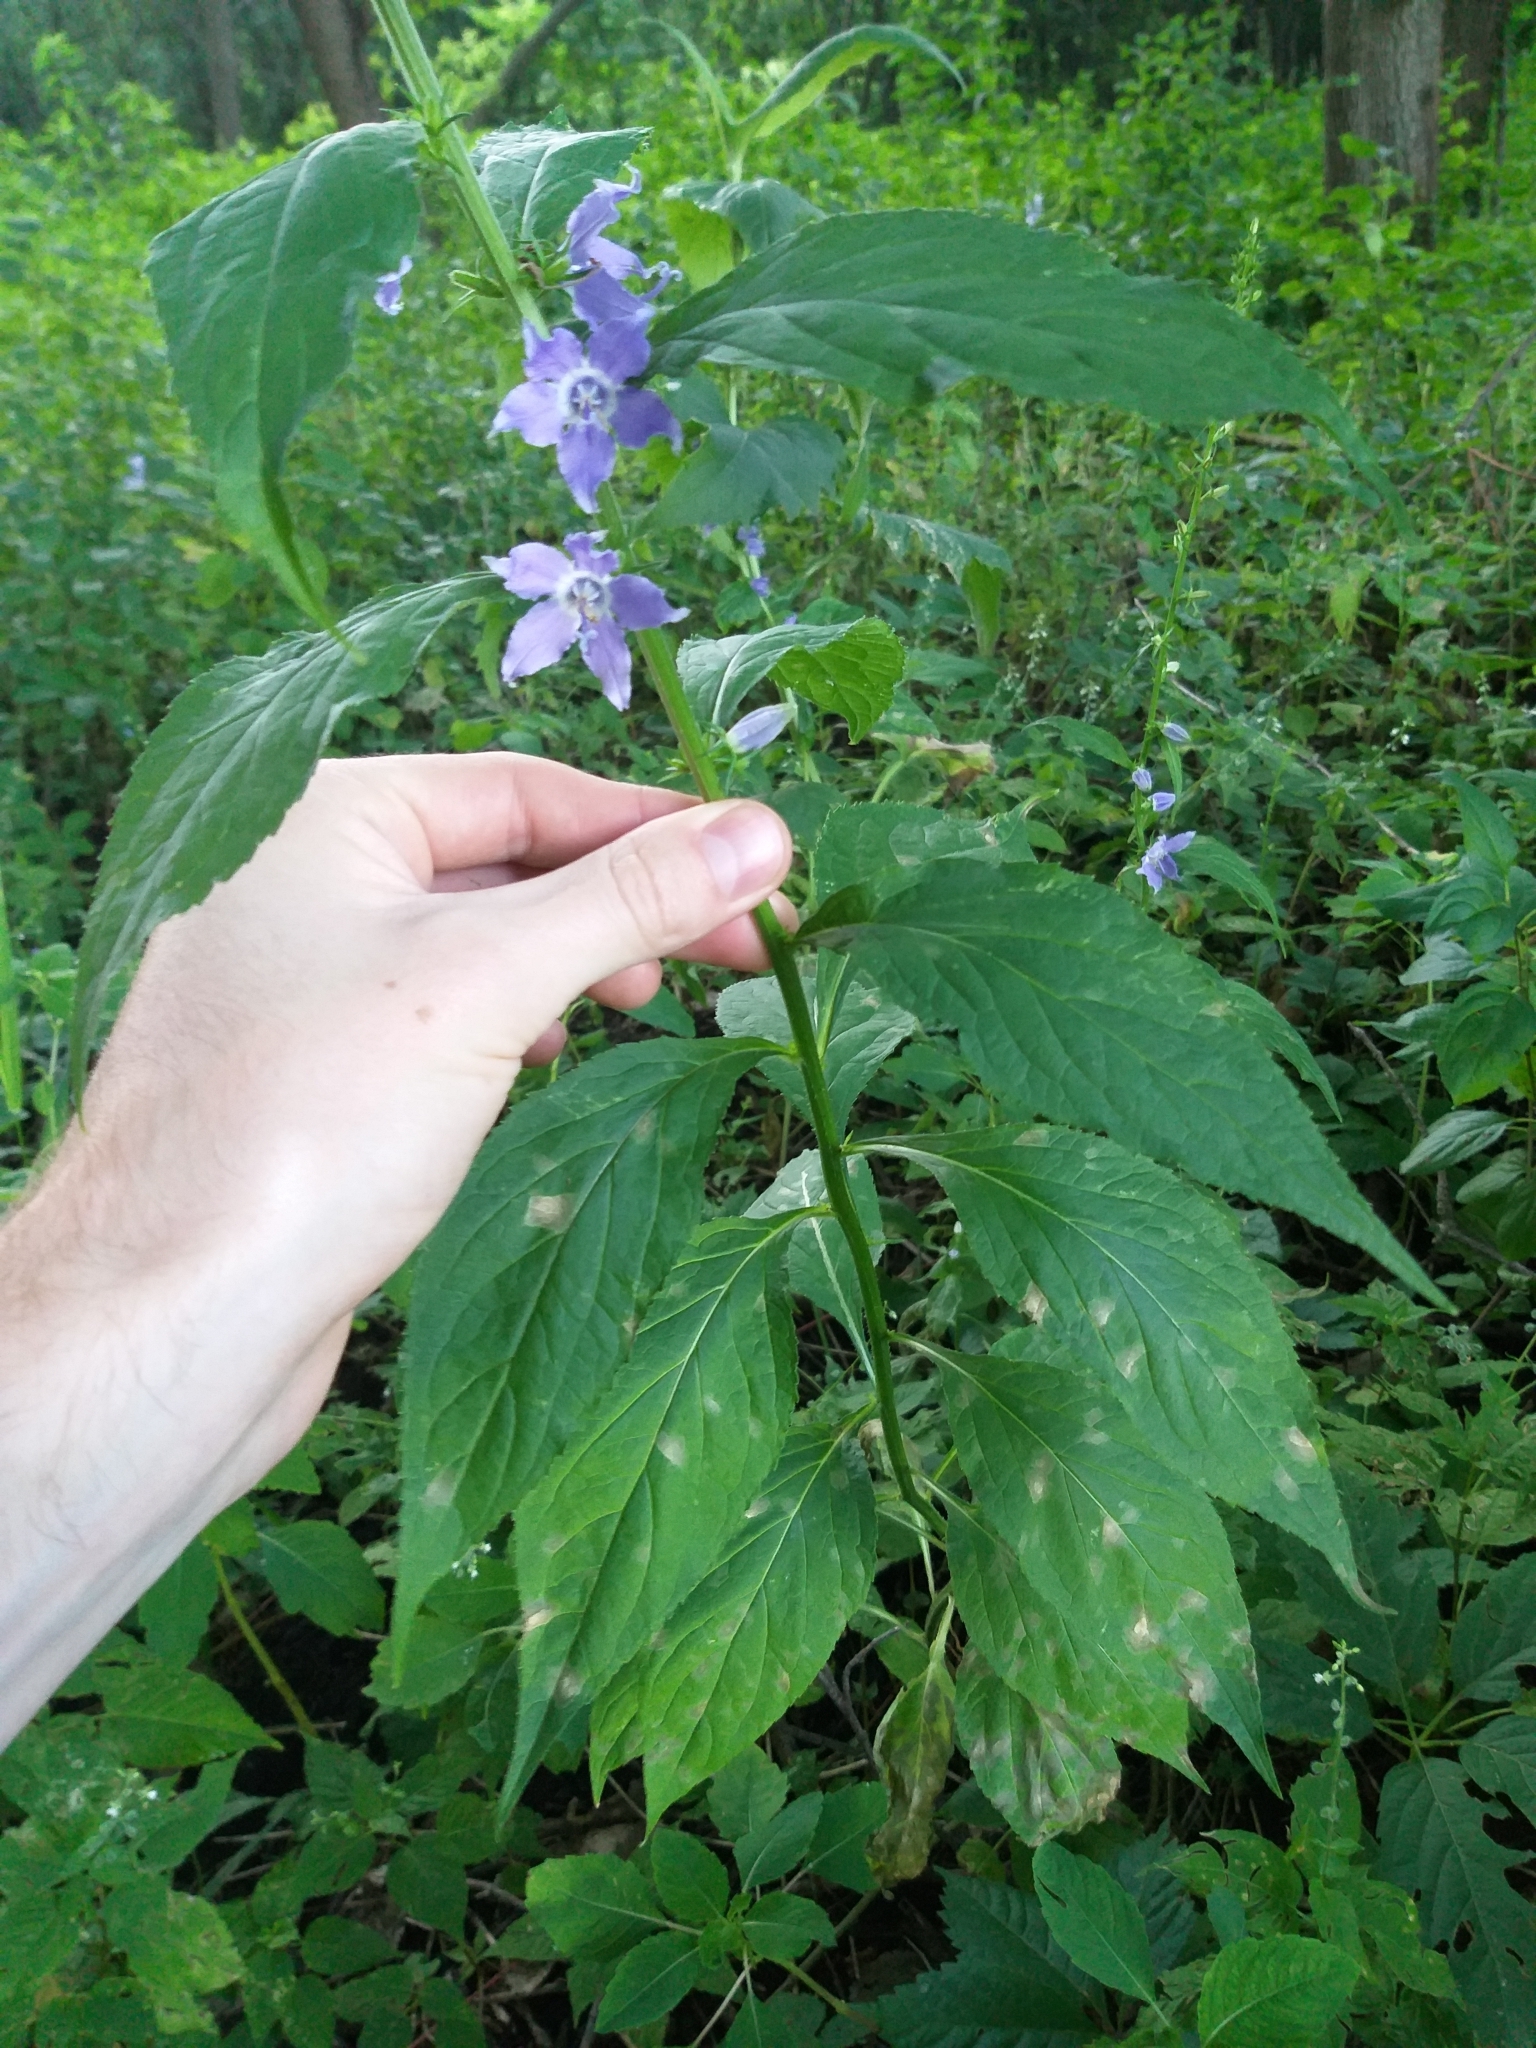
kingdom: Plantae
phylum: Tracheophyta
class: Magnoliopsida
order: Asterales
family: Campanulaceae
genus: Campanulastrum
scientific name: Campanulastrum americanum
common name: American bellflower
